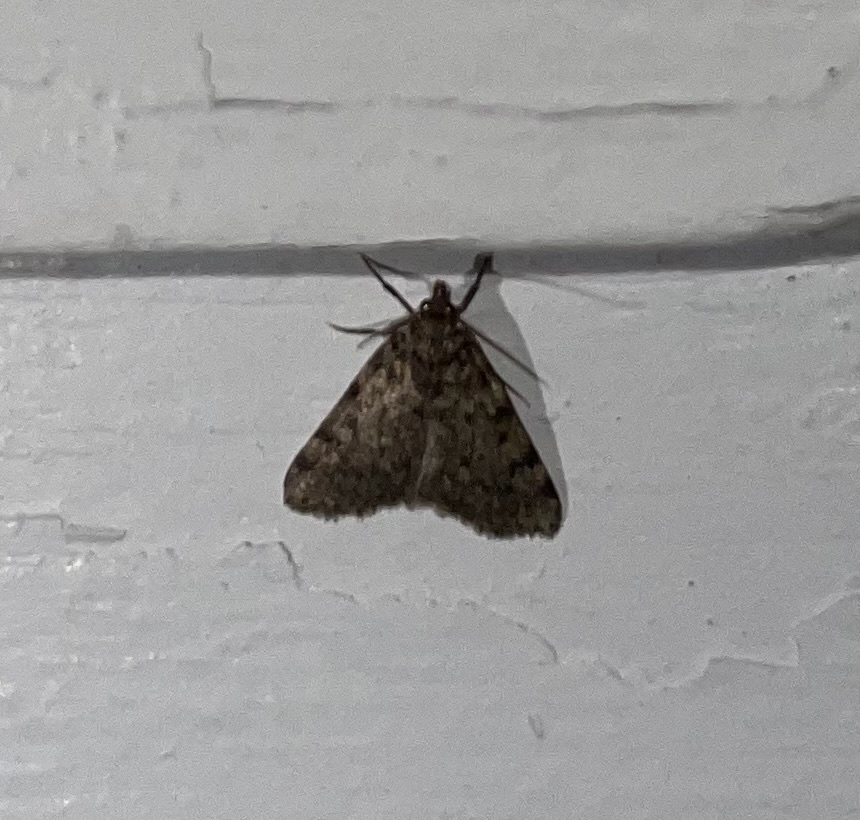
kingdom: Animalia
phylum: Arthropoda
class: Insecta
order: Lepidoptera
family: Pyralidae
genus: Aglossa
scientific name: Aglossa pinguinalis
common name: Large tabby
